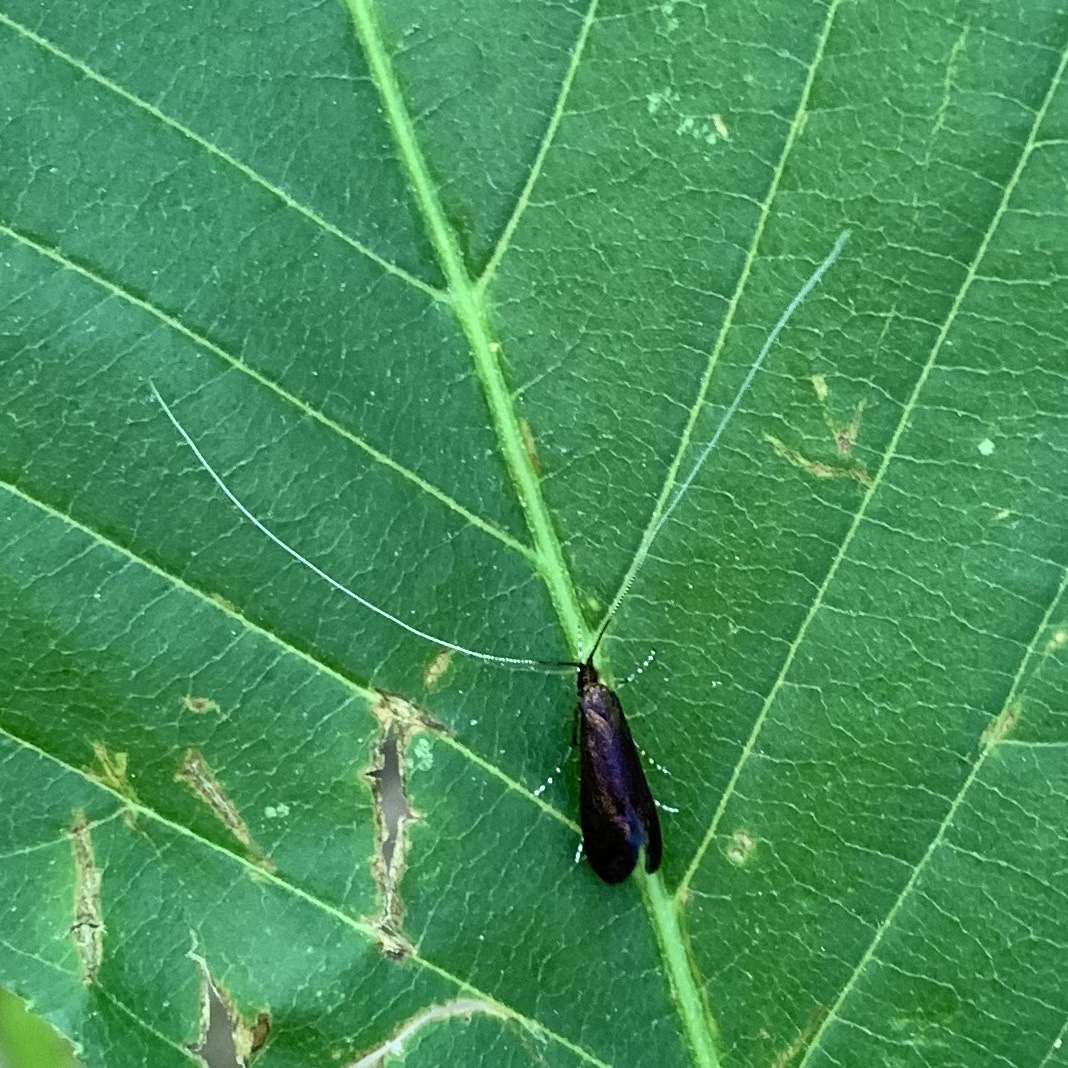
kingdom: Animalia
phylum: Arthropoda
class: Insecta
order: Lepidoptera
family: Adelidae
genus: Adela
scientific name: Adela caeruleella
